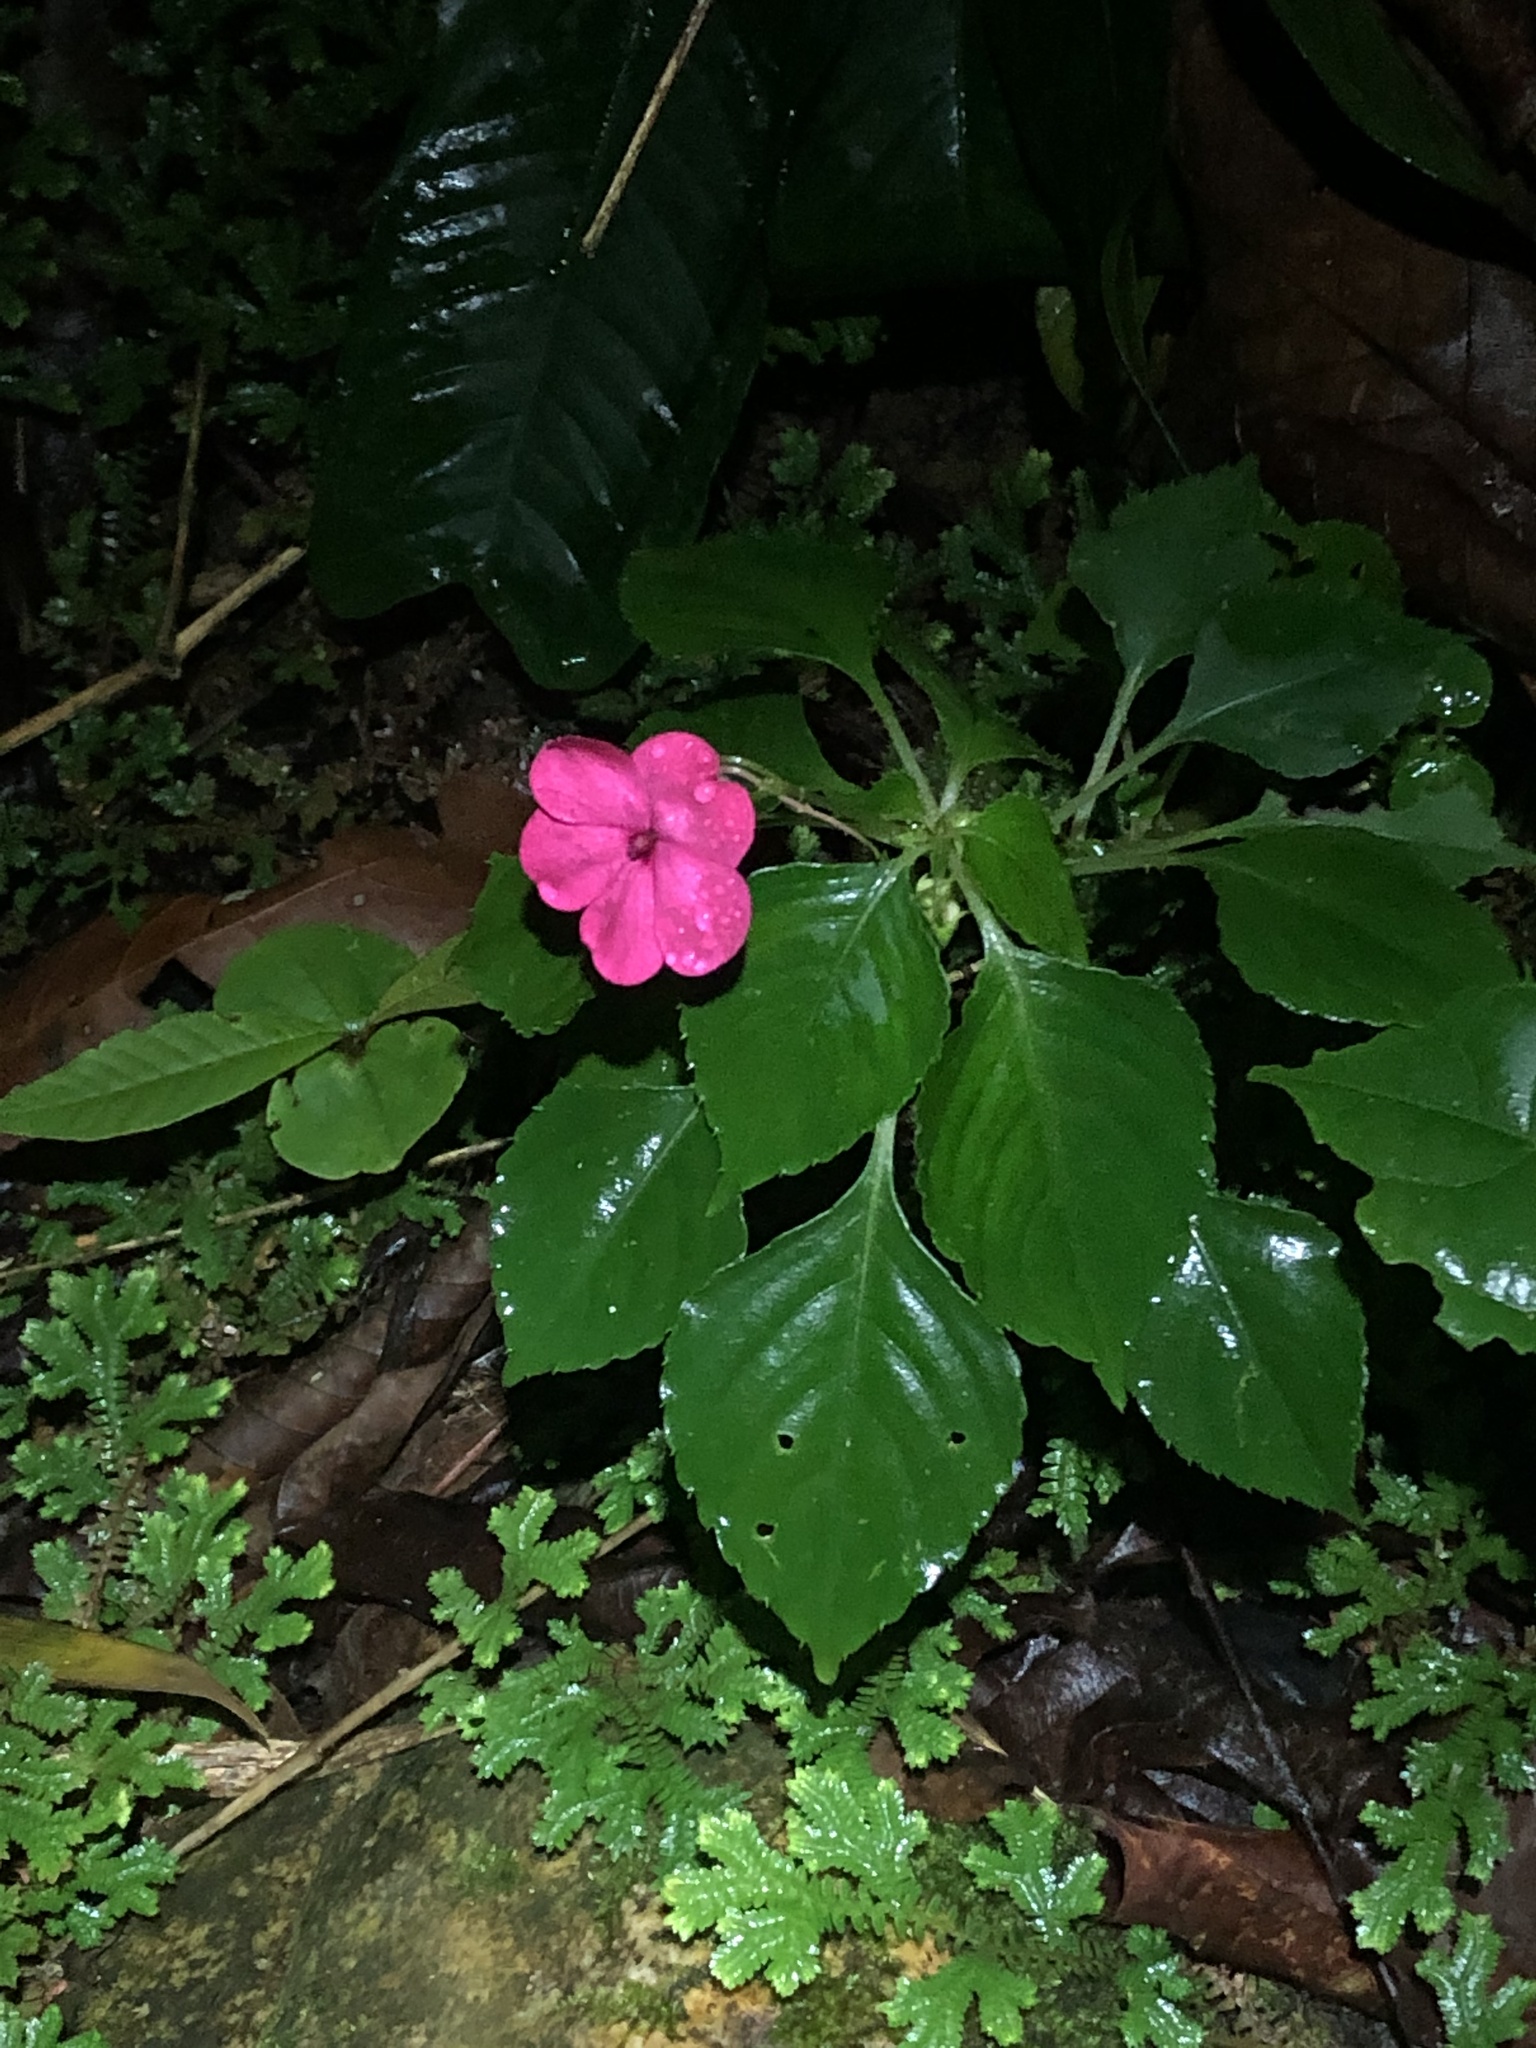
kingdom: Plantae
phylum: Tracheophyta
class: Magnoliopsida
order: Ericales
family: Balsaminaceae
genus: Impatiens
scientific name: Impatiens walleriana
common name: Buzzy lizzy
